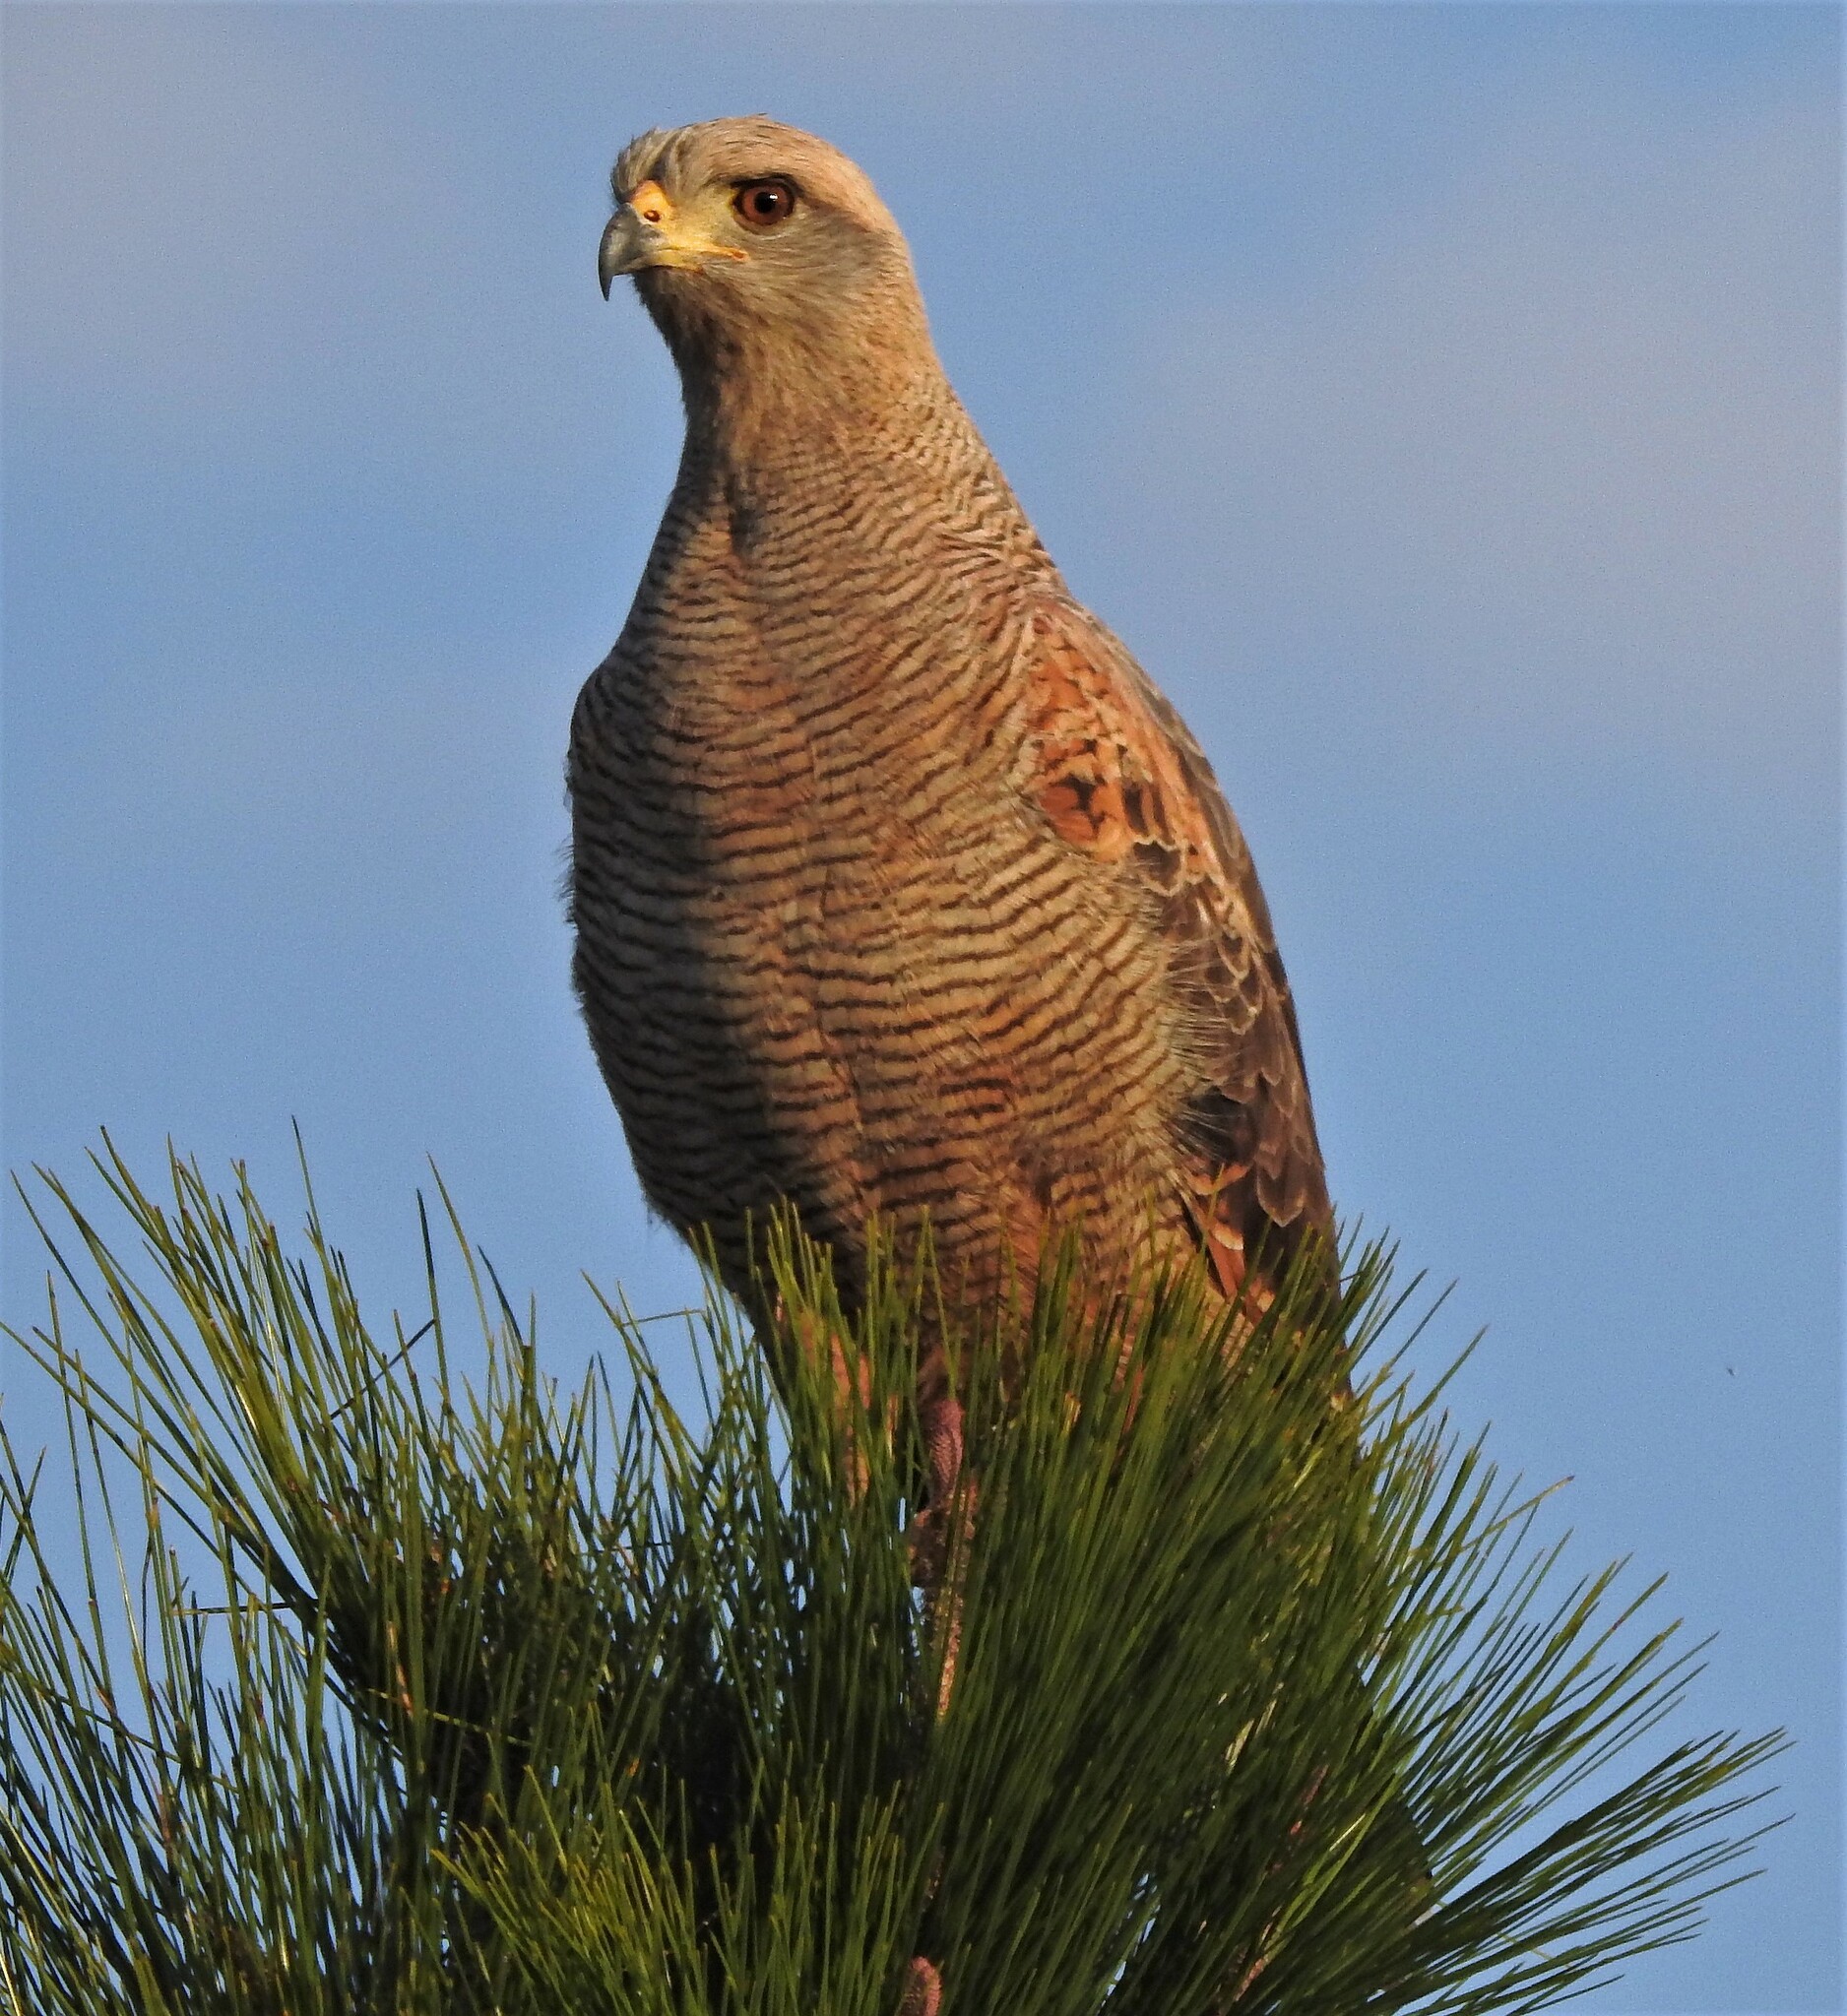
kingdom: Animalia
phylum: Chordata
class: Aves
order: Accipitriformes
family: Accipitridae
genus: Buteogallus
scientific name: Buteogallus meridionalis
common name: Savanna hawk
